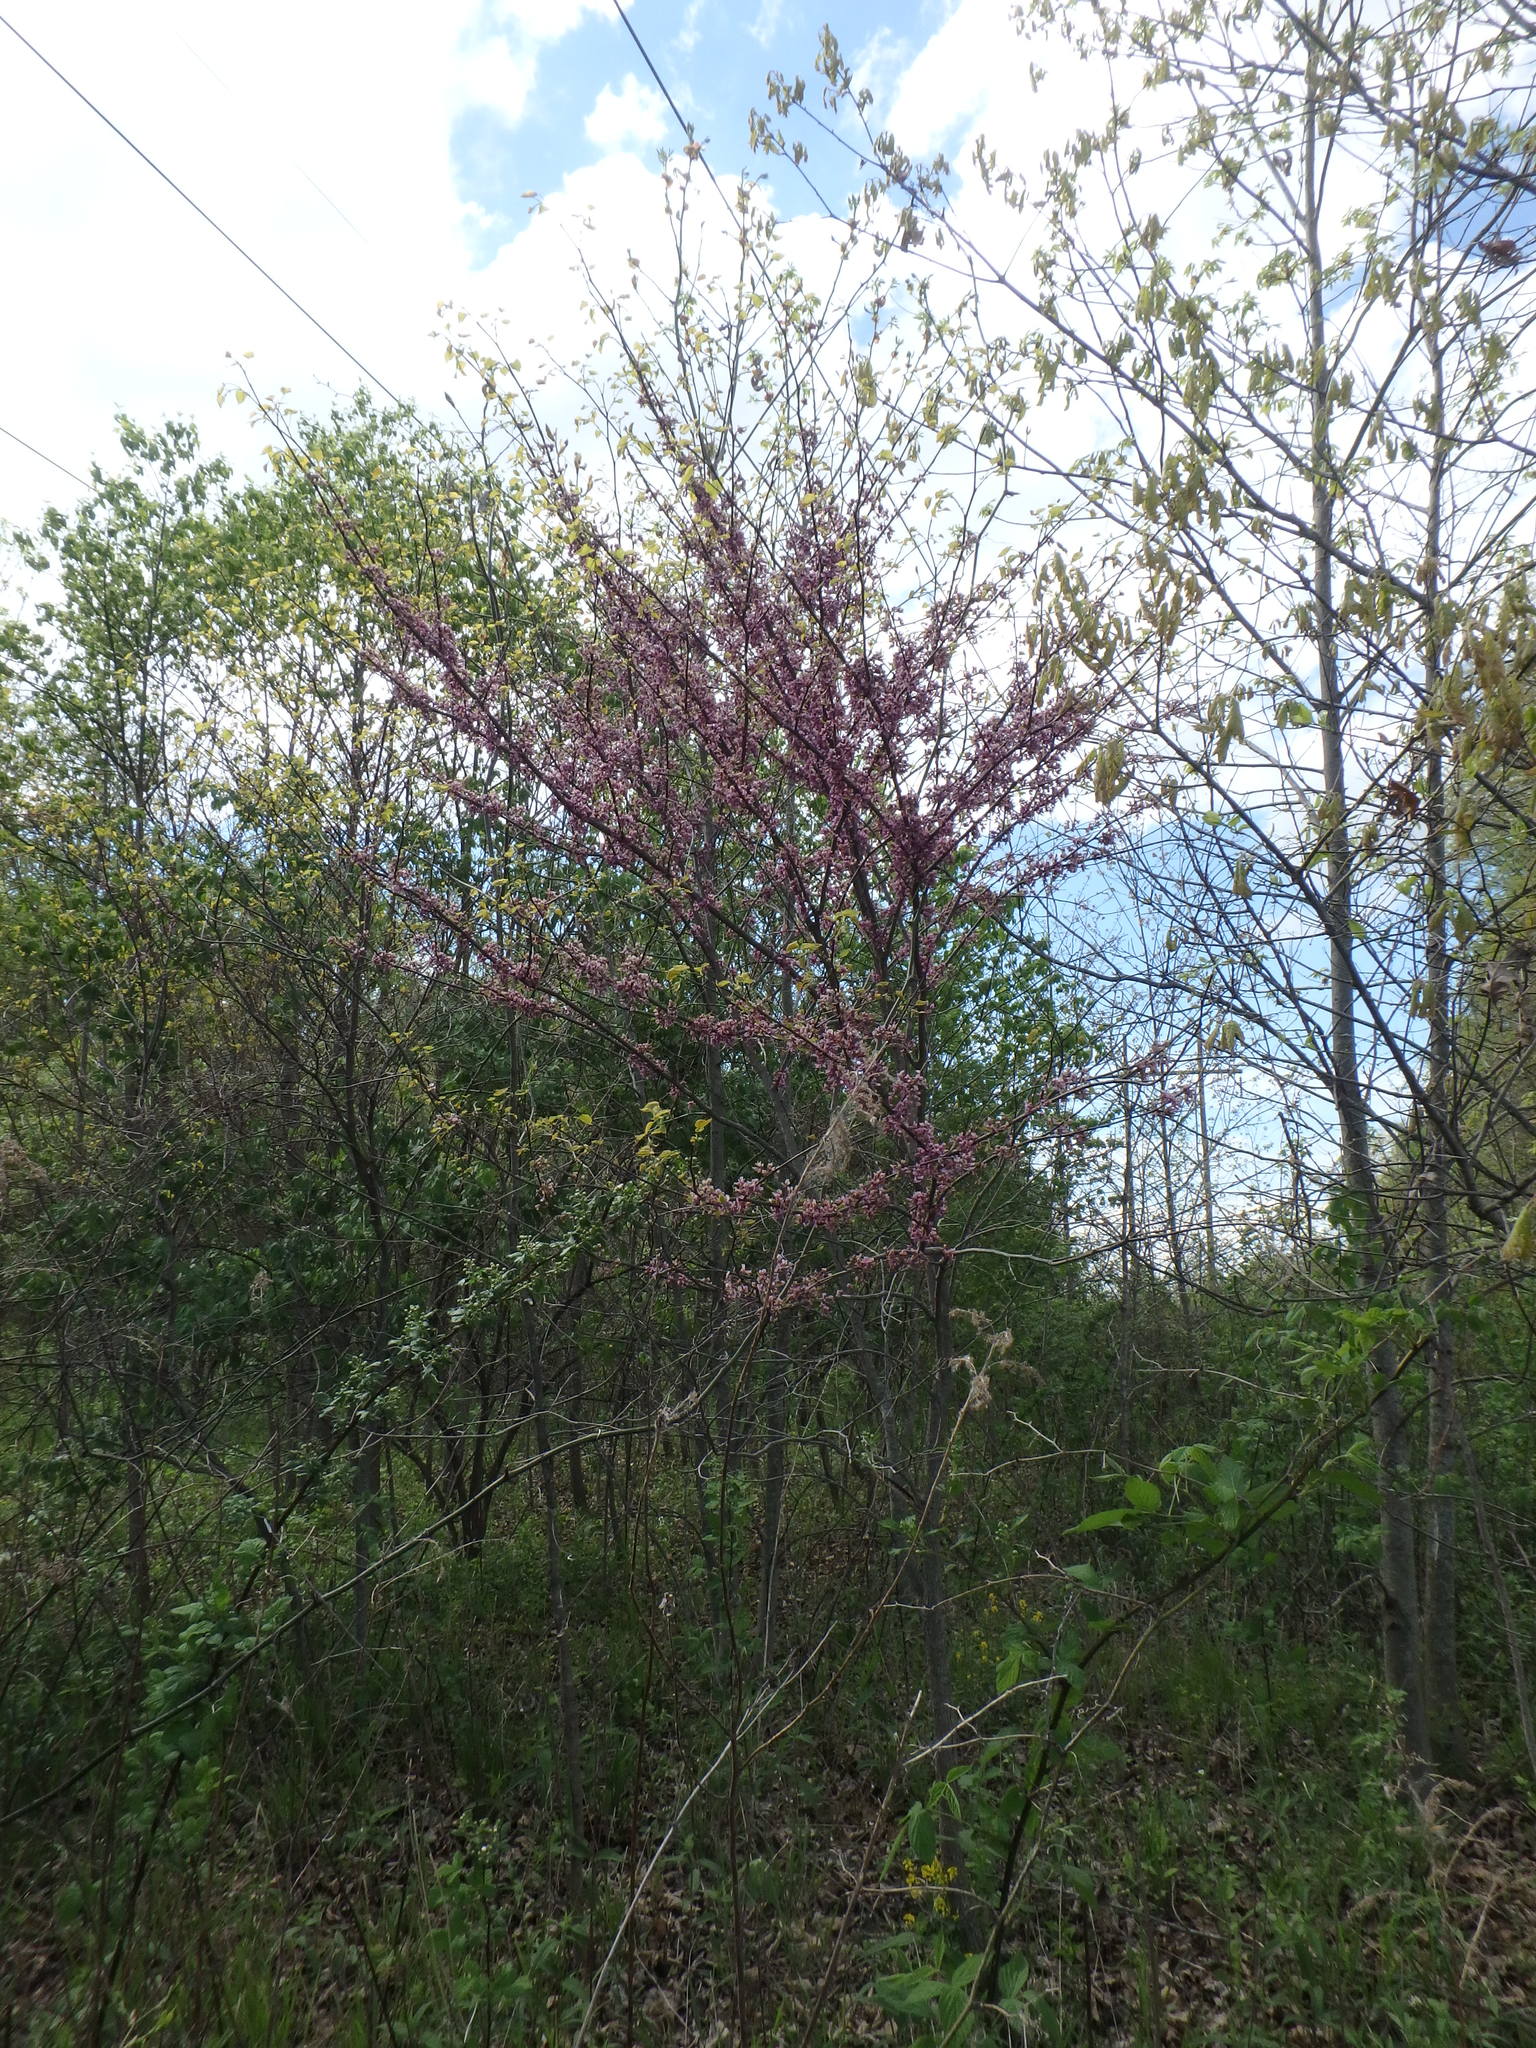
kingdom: Plantae
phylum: Tracheophyta
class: Magnoliopsida
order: Fabales
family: Fabaceae
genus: Cercis
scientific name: Cercis canadensis
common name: Eastern redbud
